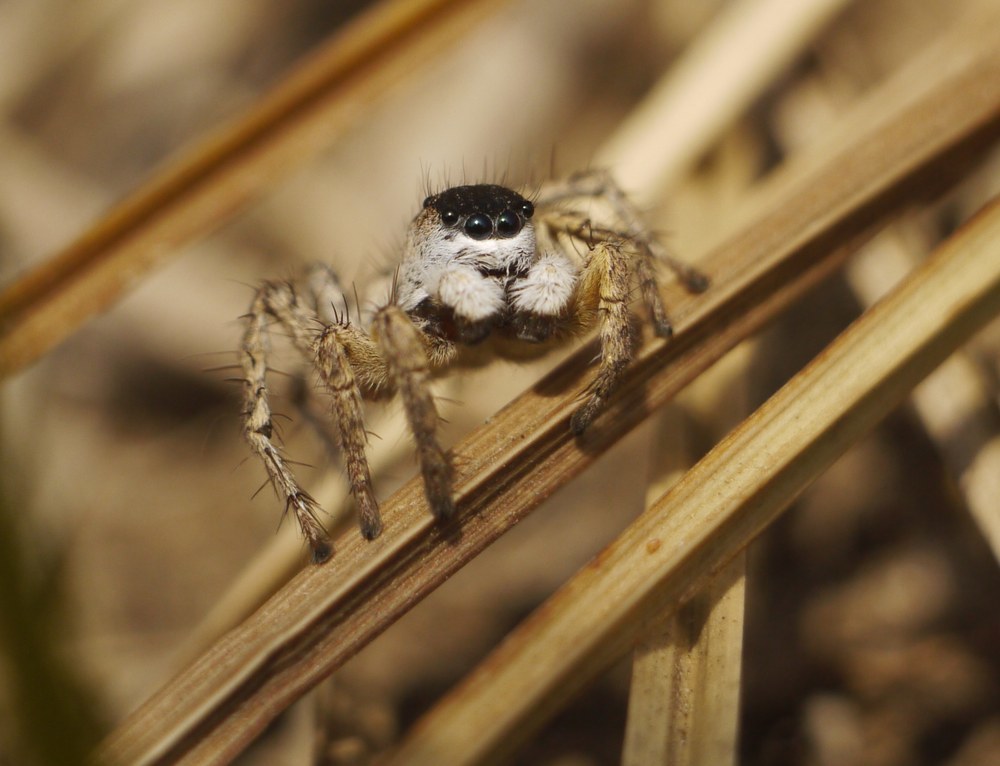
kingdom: Animalia
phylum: Arthropoda
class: Arachnida
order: Araneae
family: Salticidae
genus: Aelurillus
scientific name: Aelurillus m-nigrum
